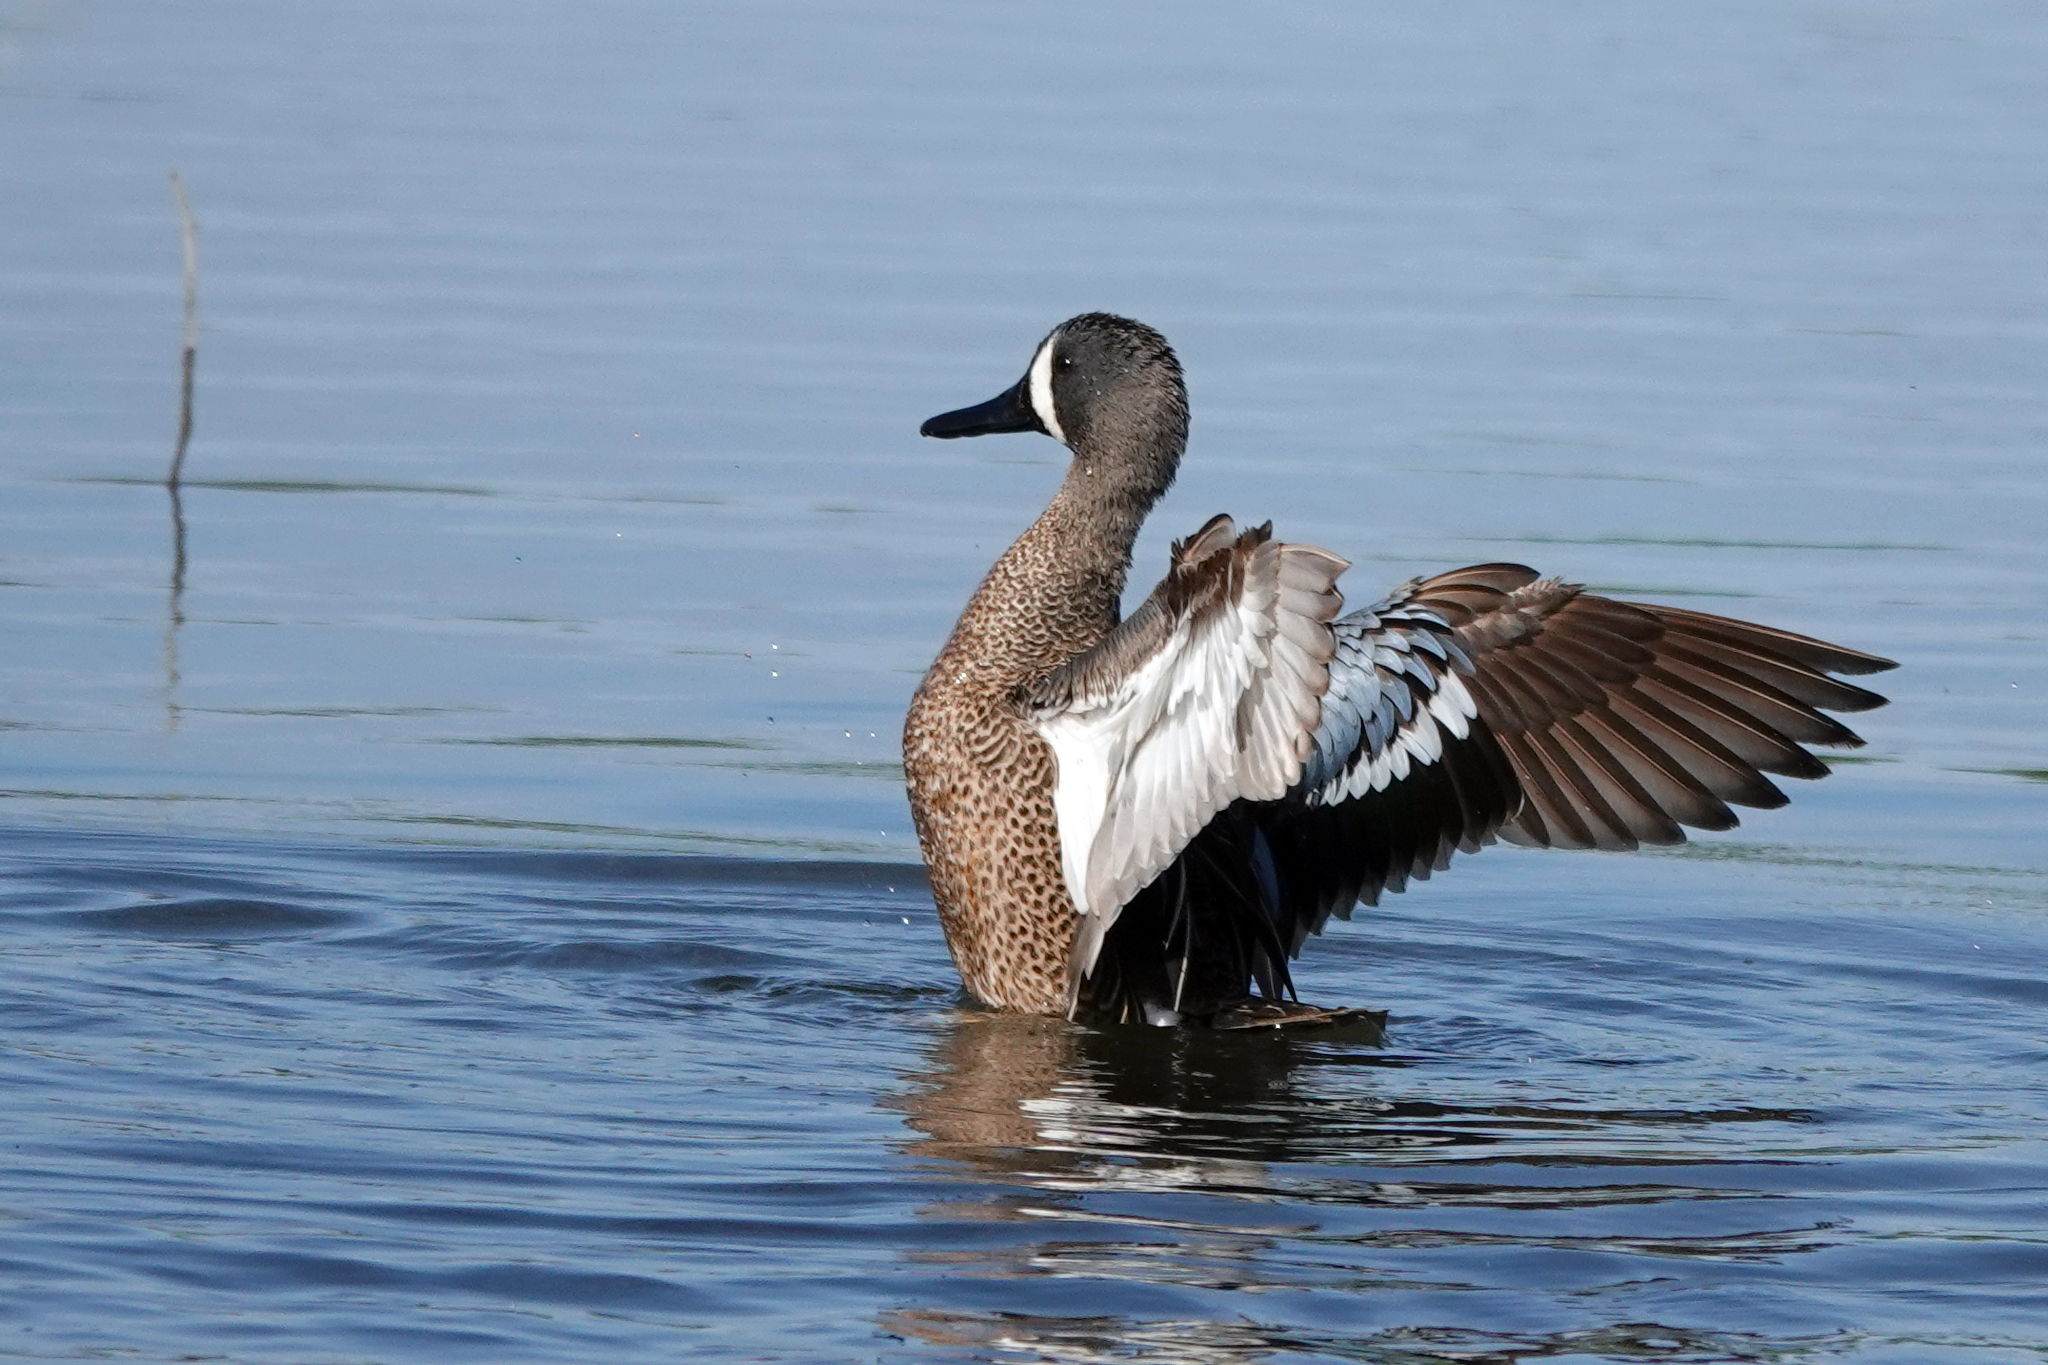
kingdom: Animalia
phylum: Chordata
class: Aves
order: Anseriformes
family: Anatidae
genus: Spatula
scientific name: Spatula discors
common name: Blue-winged teal
